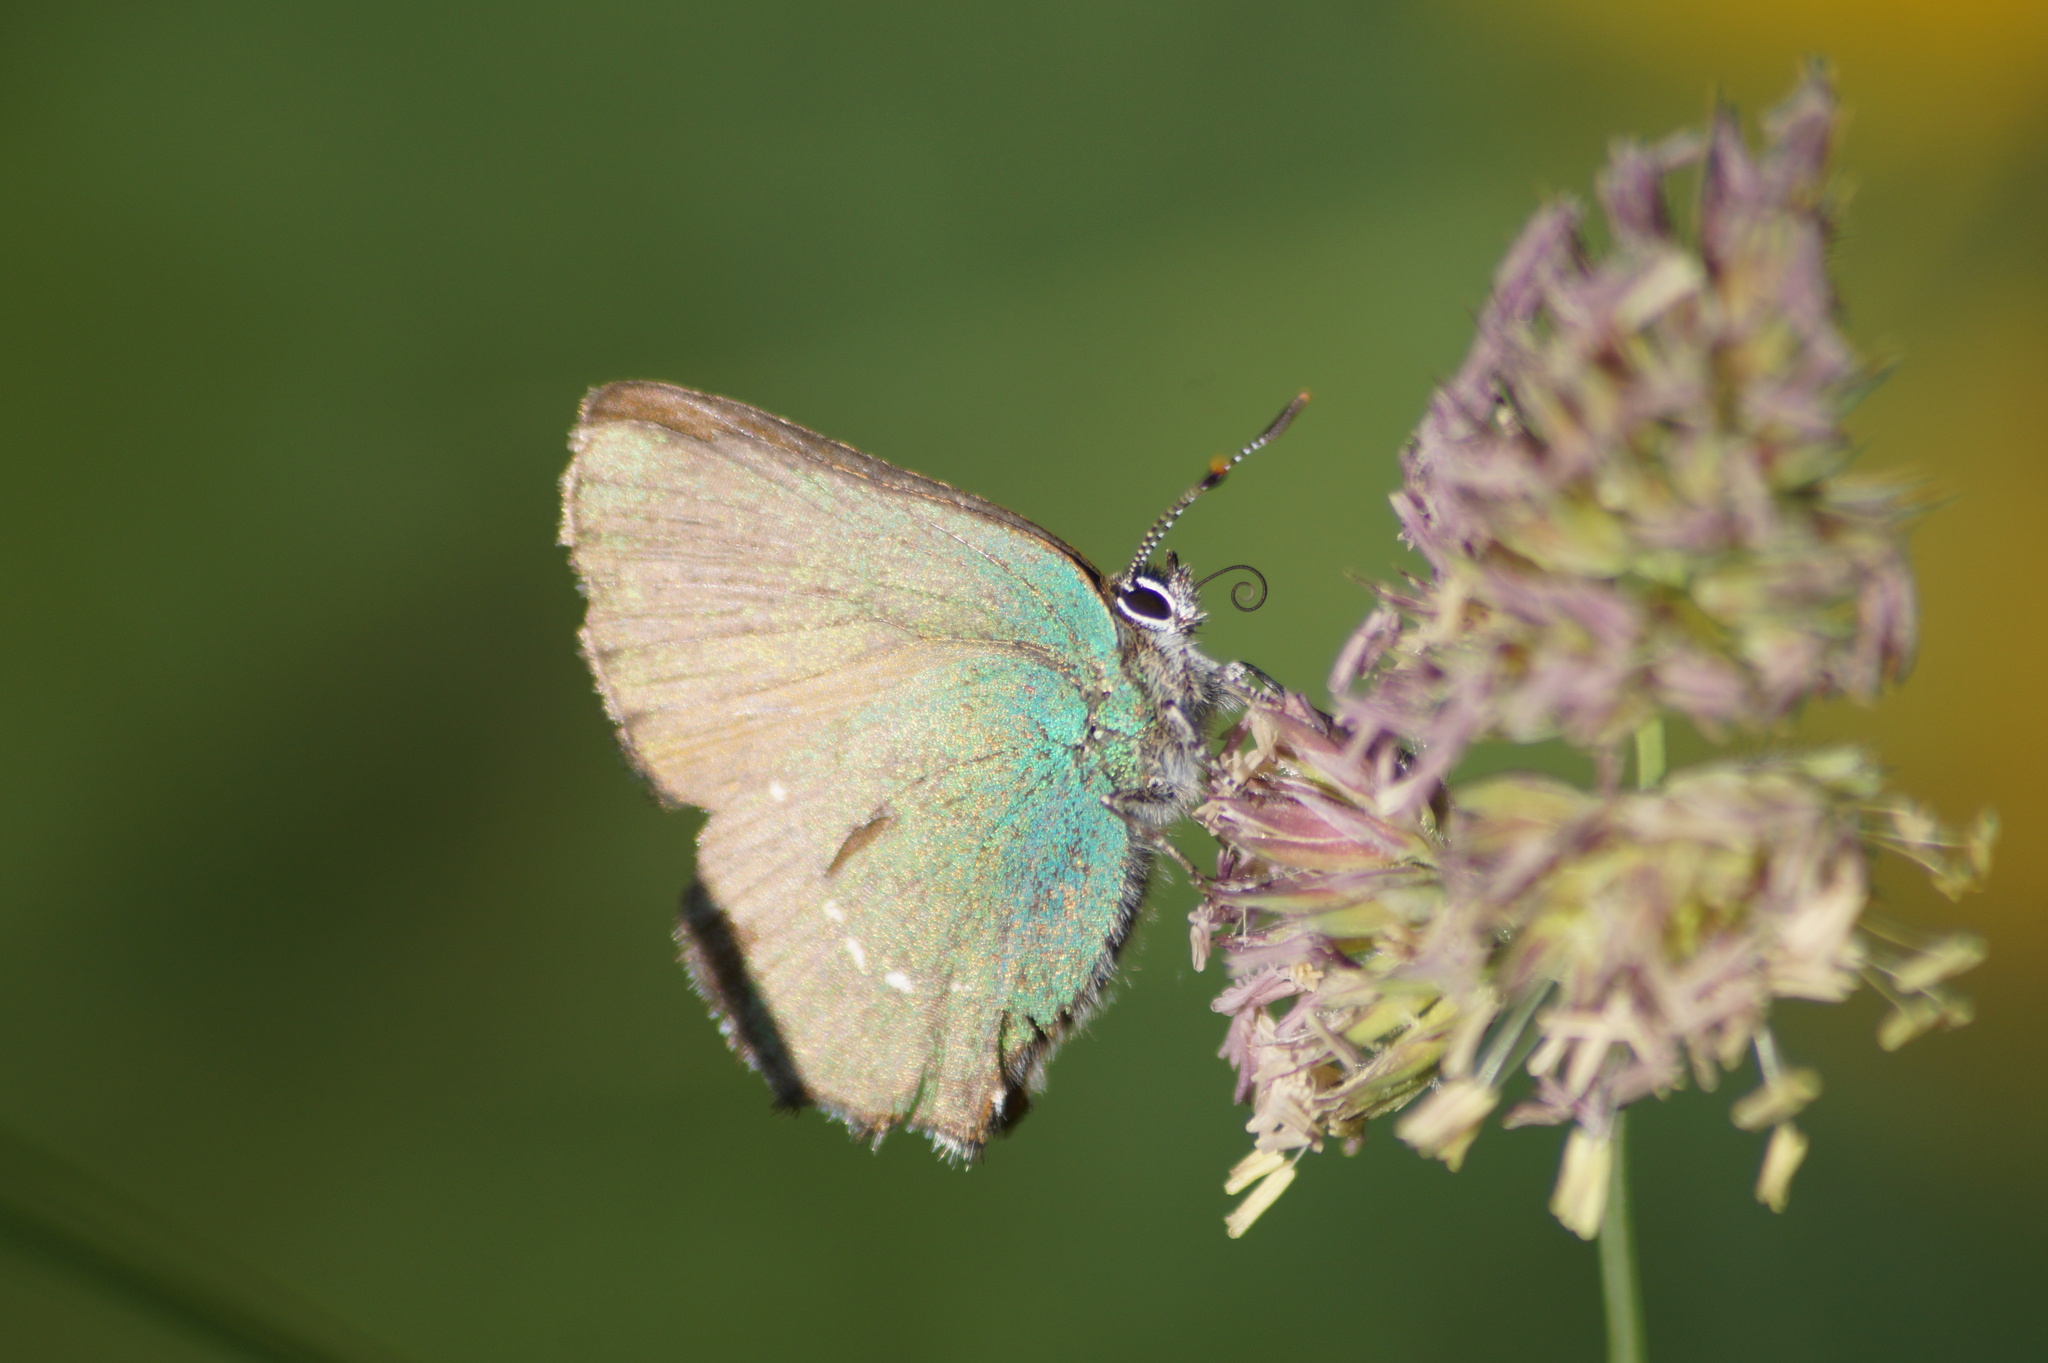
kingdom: Animalia
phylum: Arthropoda
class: Insecta
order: Lepidoptera
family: Lycaenidae
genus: Callophrys
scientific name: Callophrys rubi
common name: Green hairstreak
